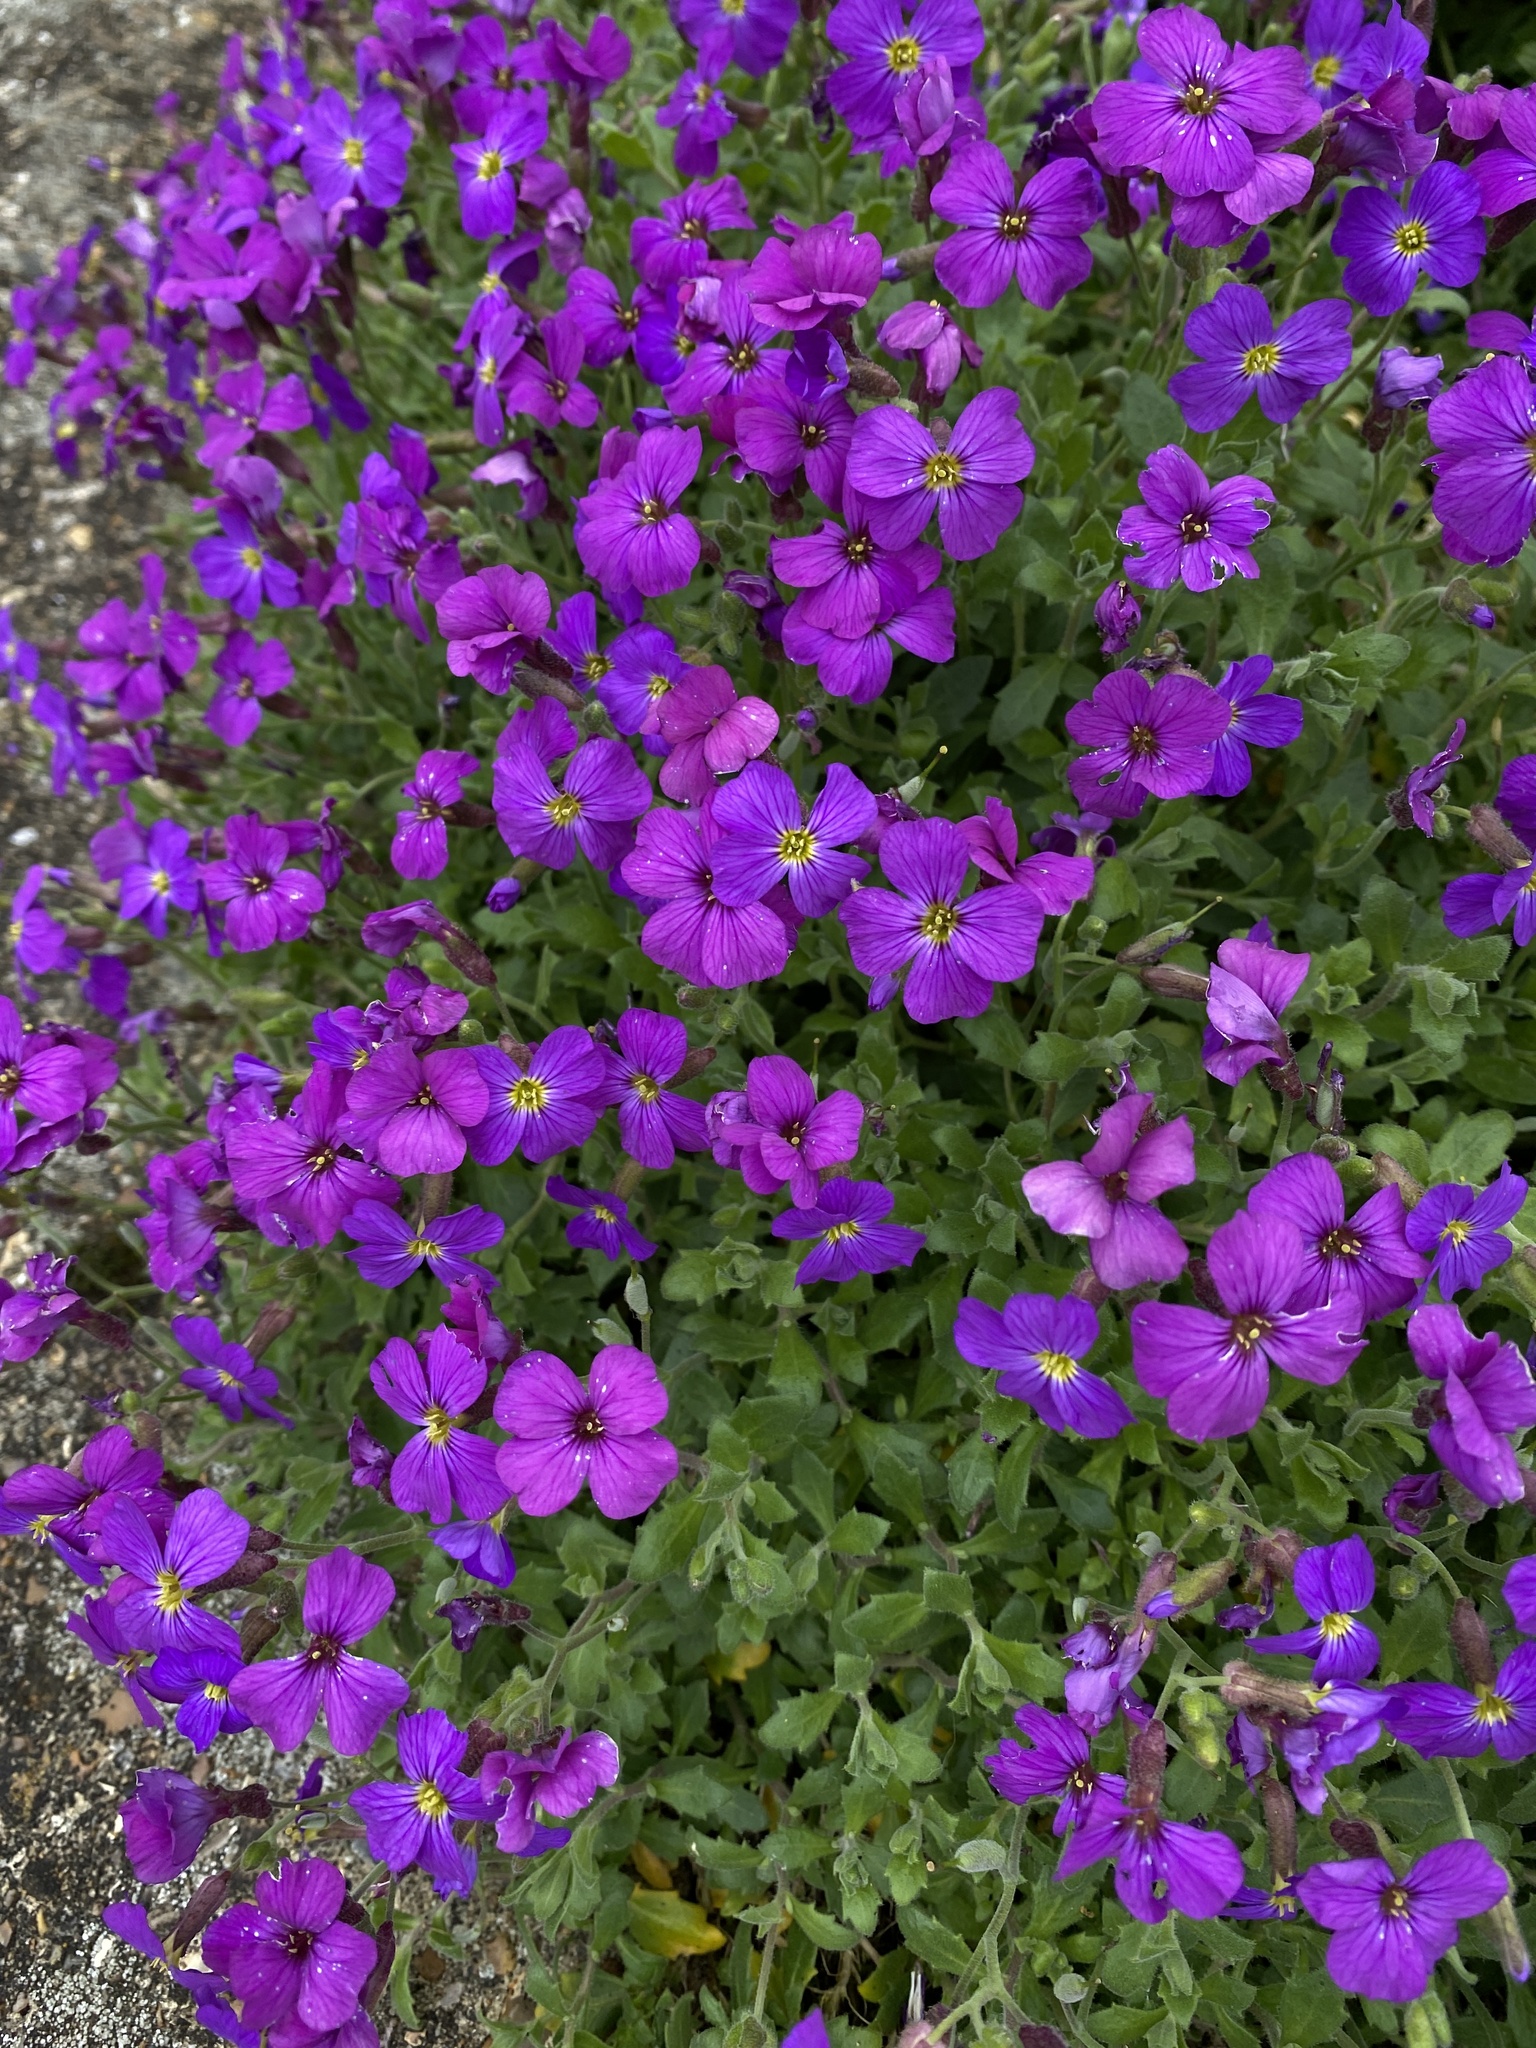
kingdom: Plantae
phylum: Tracheophyta
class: Magnoliopsida
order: Brassicales
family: Brassicaceae
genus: Aubrieta
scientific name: Aubrieta deltoidea
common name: Aubretia
